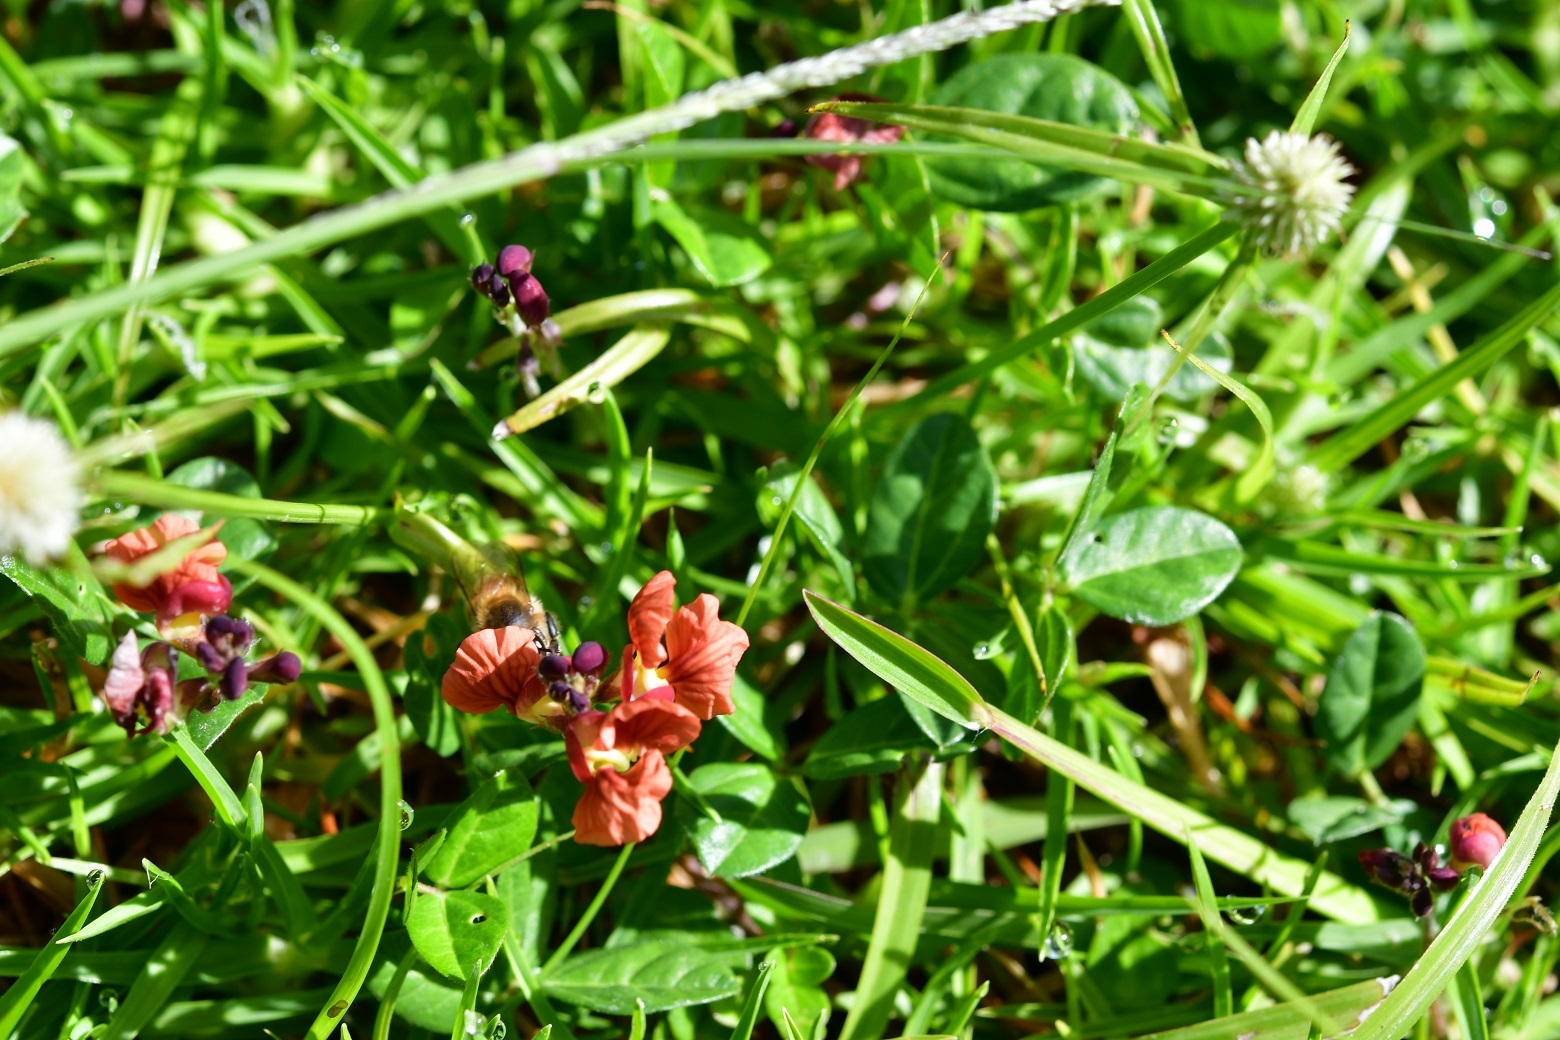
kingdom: Plantae
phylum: Tracheophyta
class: Magnoliopsida
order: Fabales
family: Fabaceae
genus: Macroptilium
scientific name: Macroptilium gibbosifolium
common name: Variableleaf bushbean
